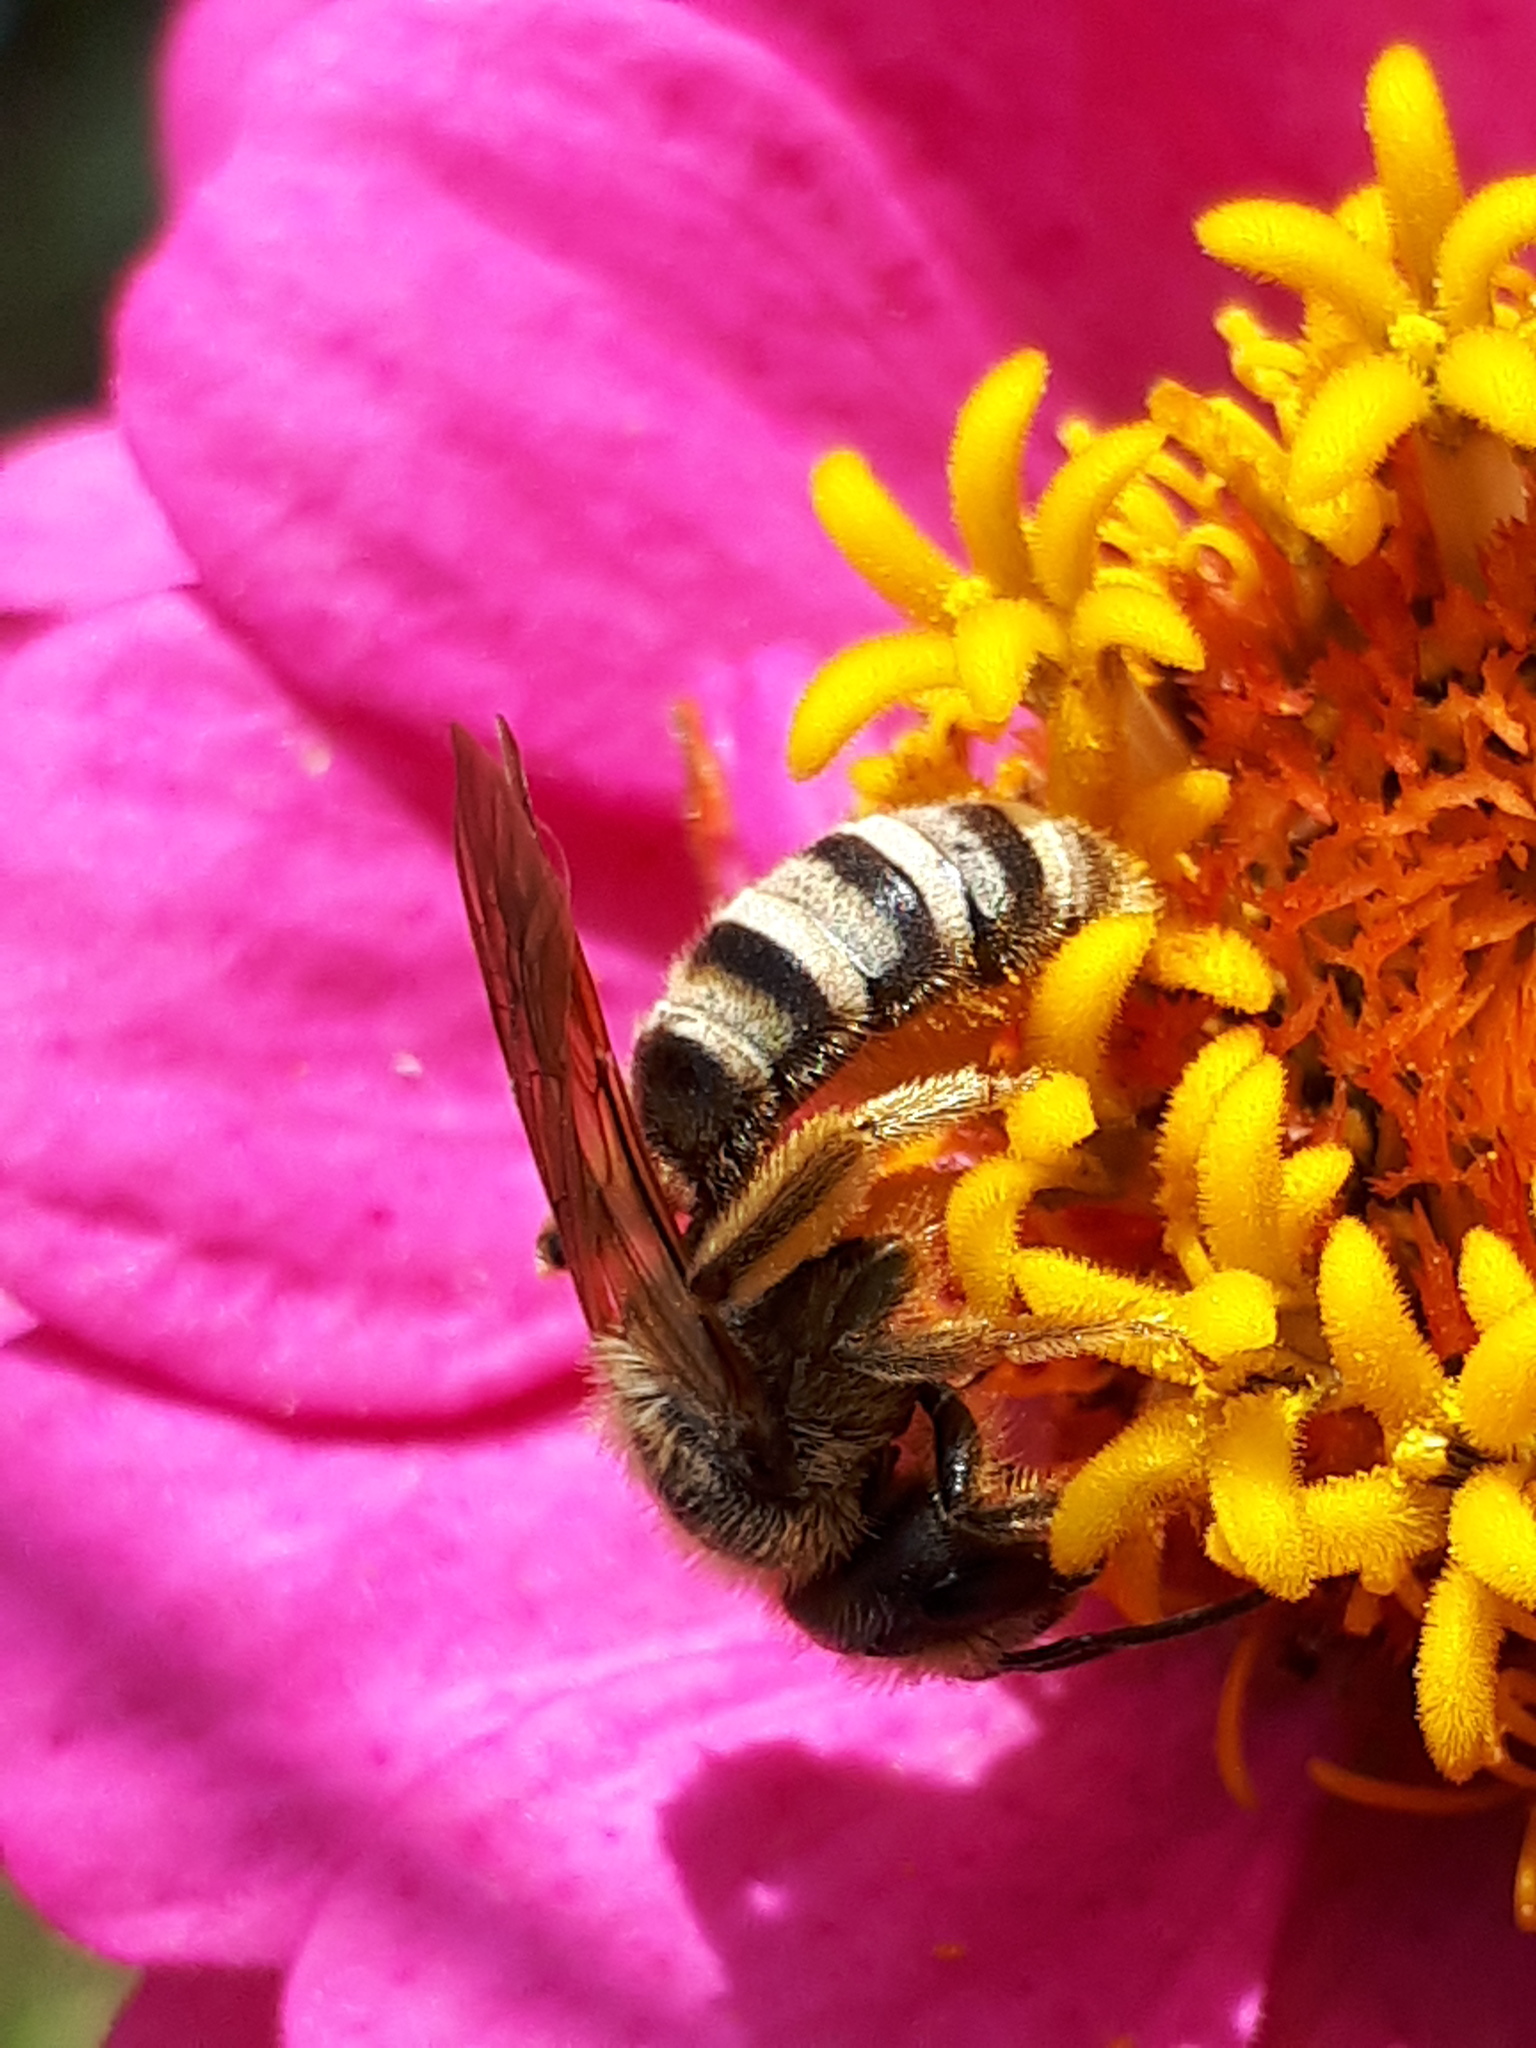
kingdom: Animalia
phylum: Arthropoda
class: Insecta
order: Hymenoptera
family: Halictidae
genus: Halictus
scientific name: Halictus scabiosae
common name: Great banded furrow bee
